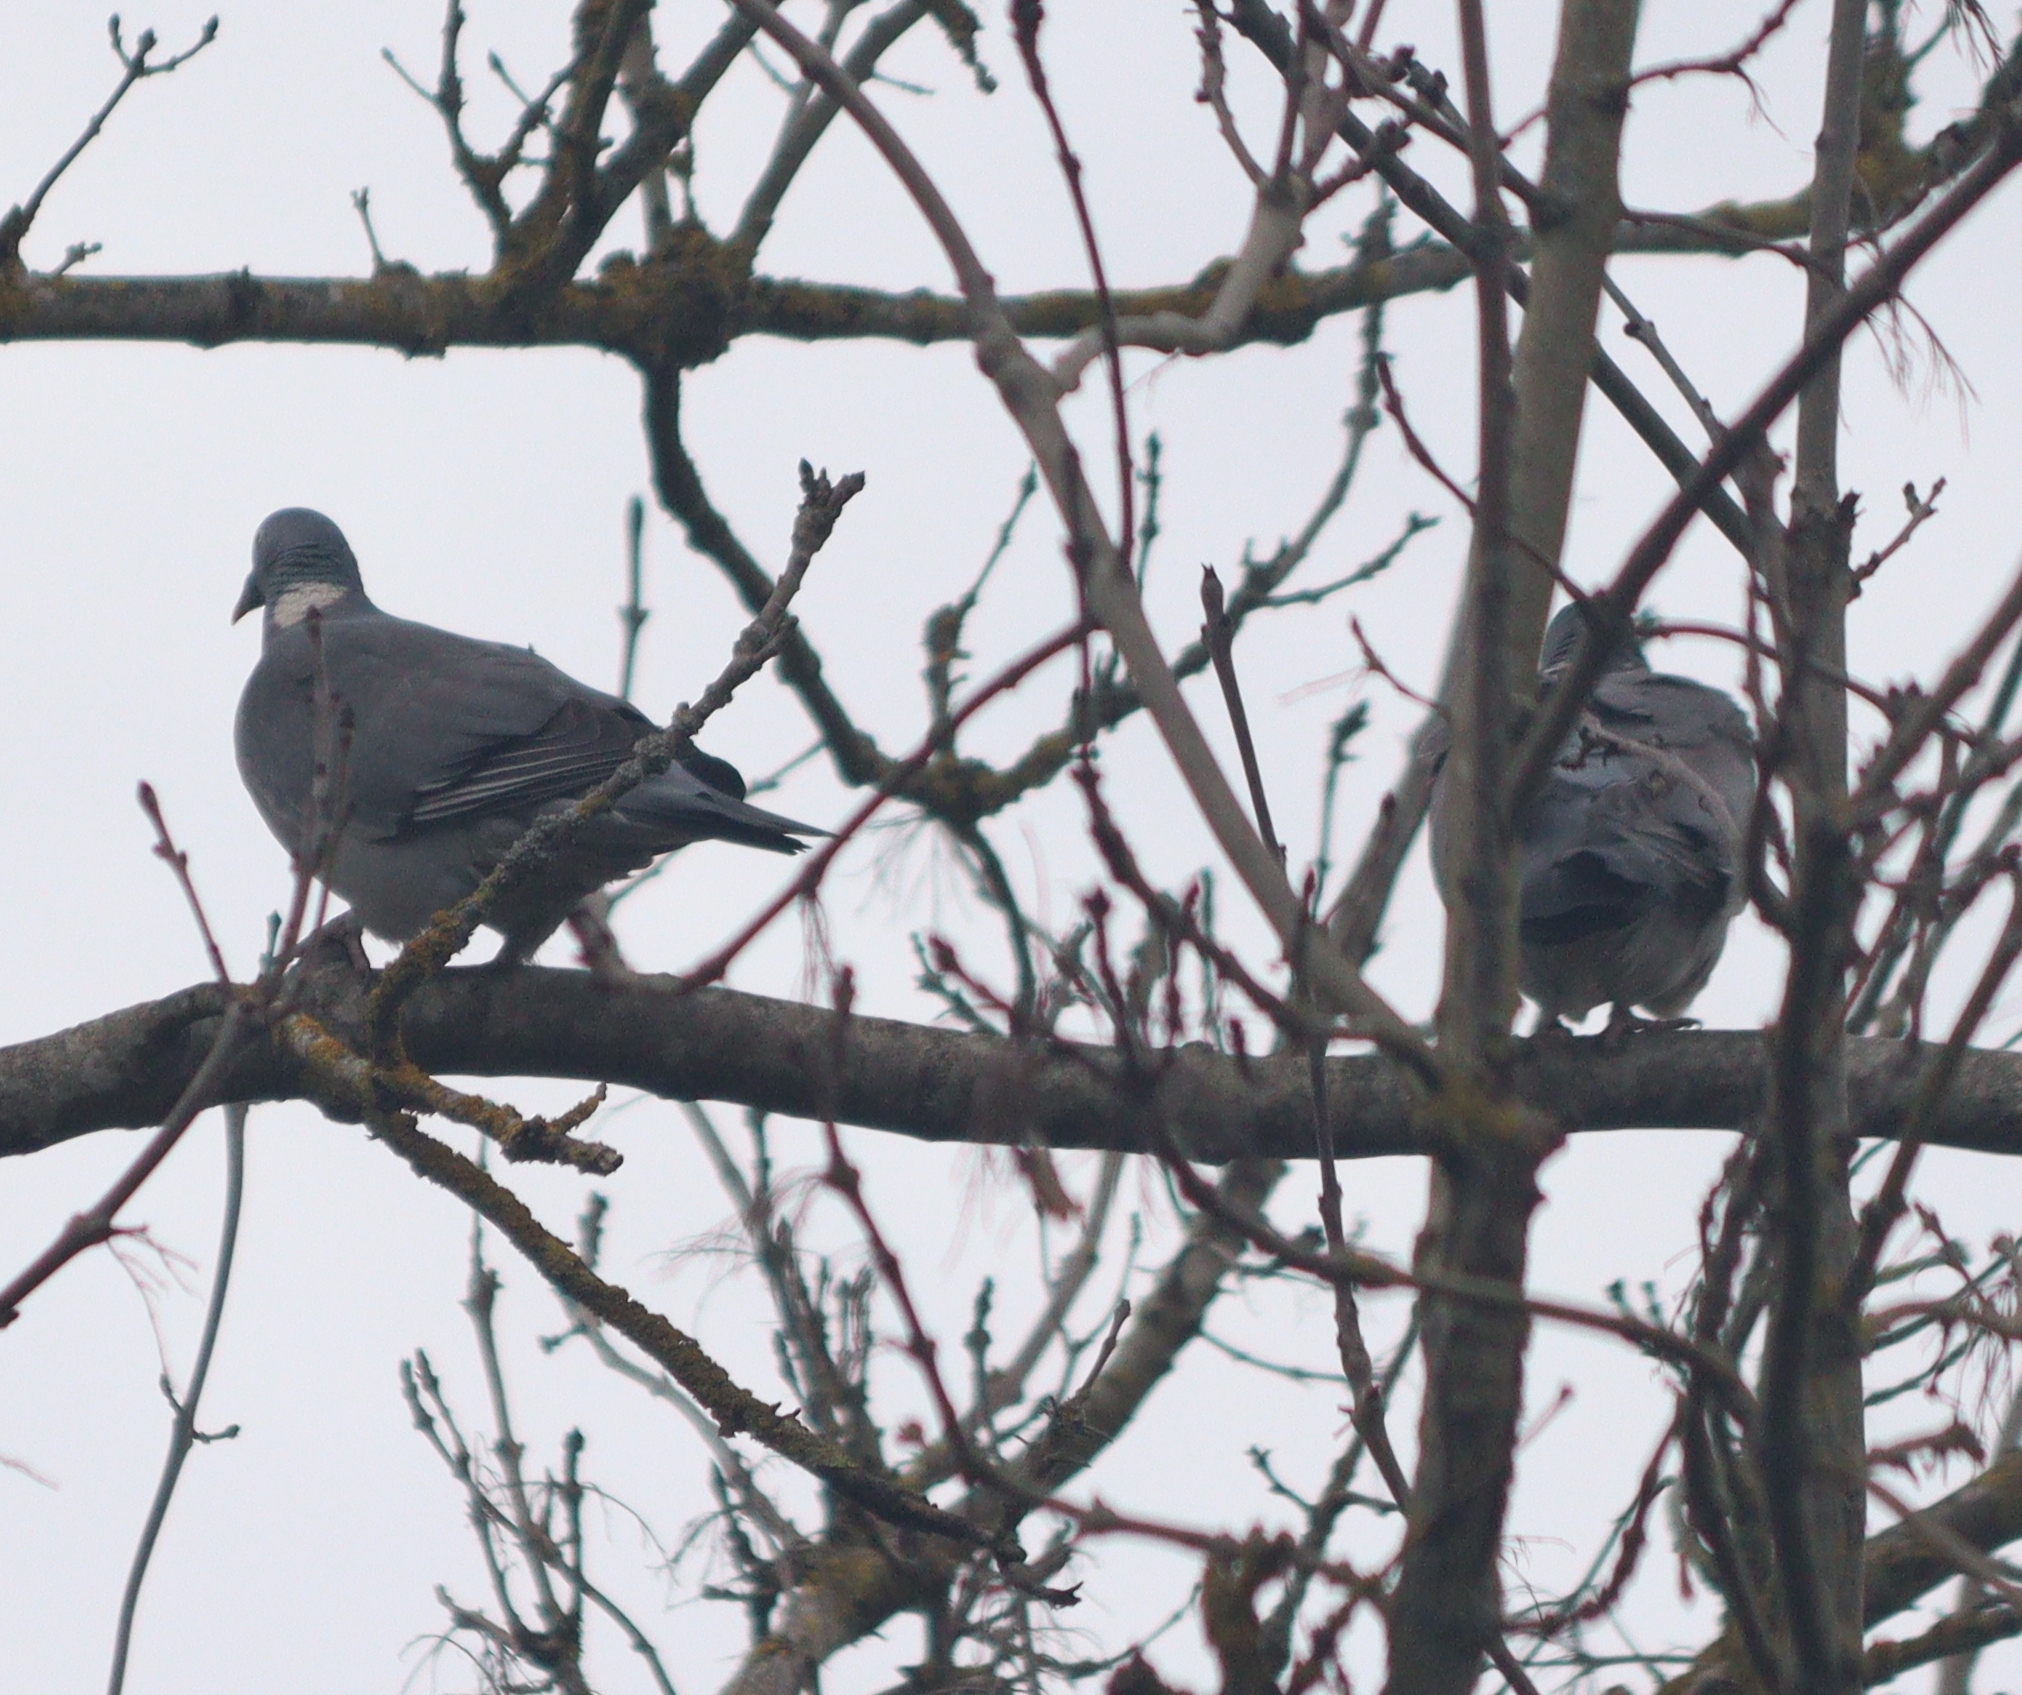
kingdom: Animalia
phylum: Chordata
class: Aves
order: Columbiformes
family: Columbidae
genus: Columba
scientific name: Columba palumbus
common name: Common wood pigeon
